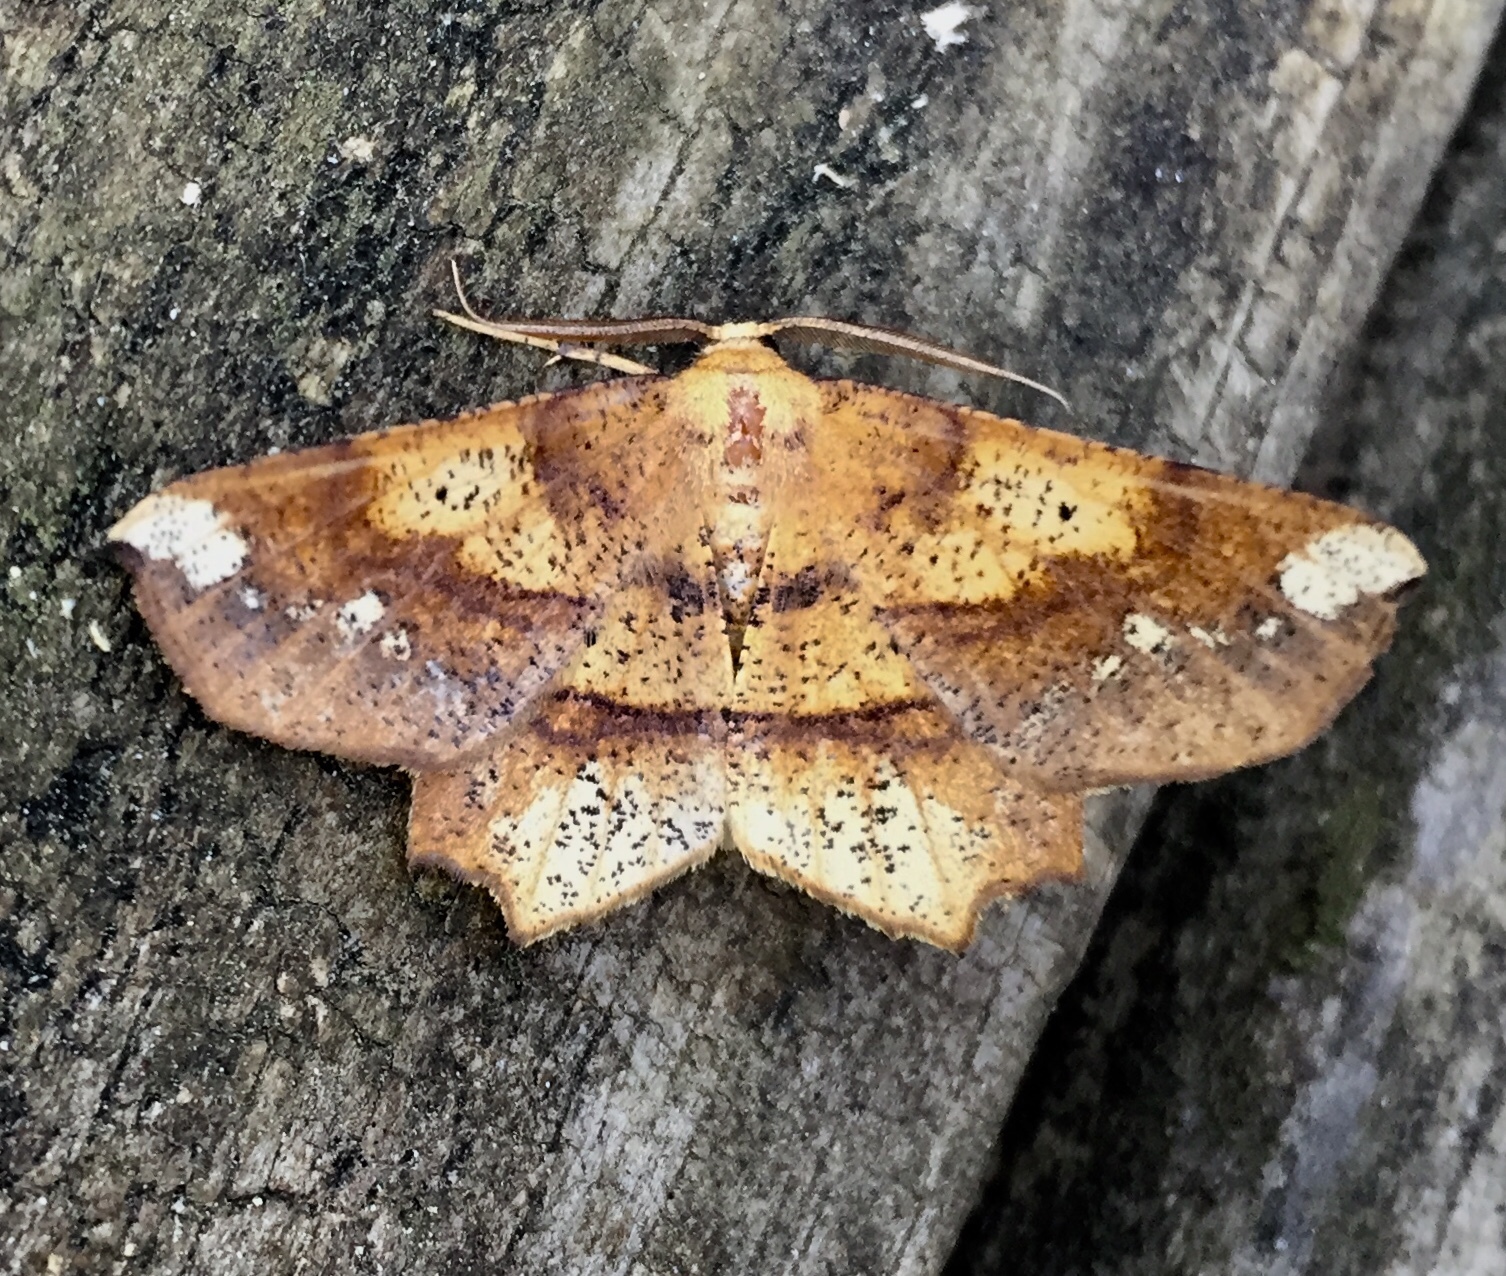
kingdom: Animalia
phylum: Arthropoda
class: Insecta
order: Lepidoptera
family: Geometridae
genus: Euchlaena
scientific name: Euchlaena amoenaria
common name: Deep yellow euchlaena
